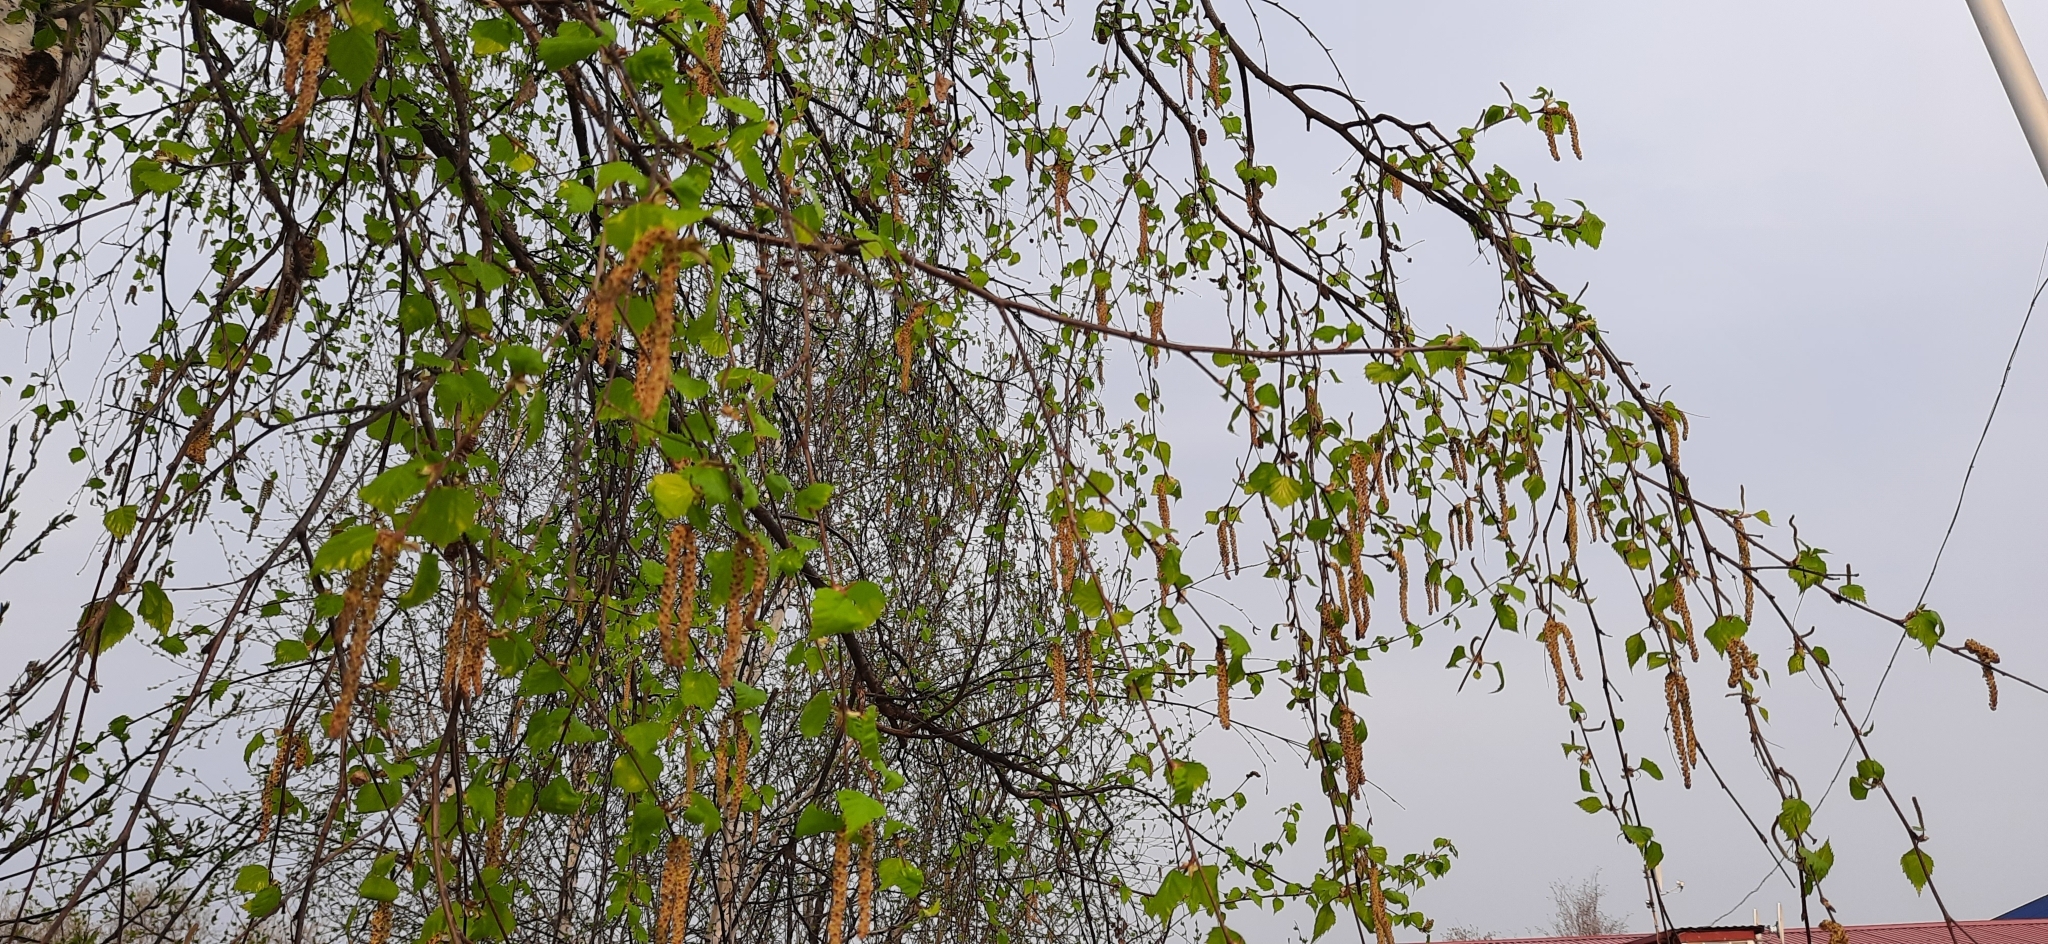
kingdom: Plantae
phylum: Tracheophyta
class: Magnoliopsida
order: Fagales
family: Betulaceae
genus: Betula
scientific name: Betula pendula
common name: Silver birch
